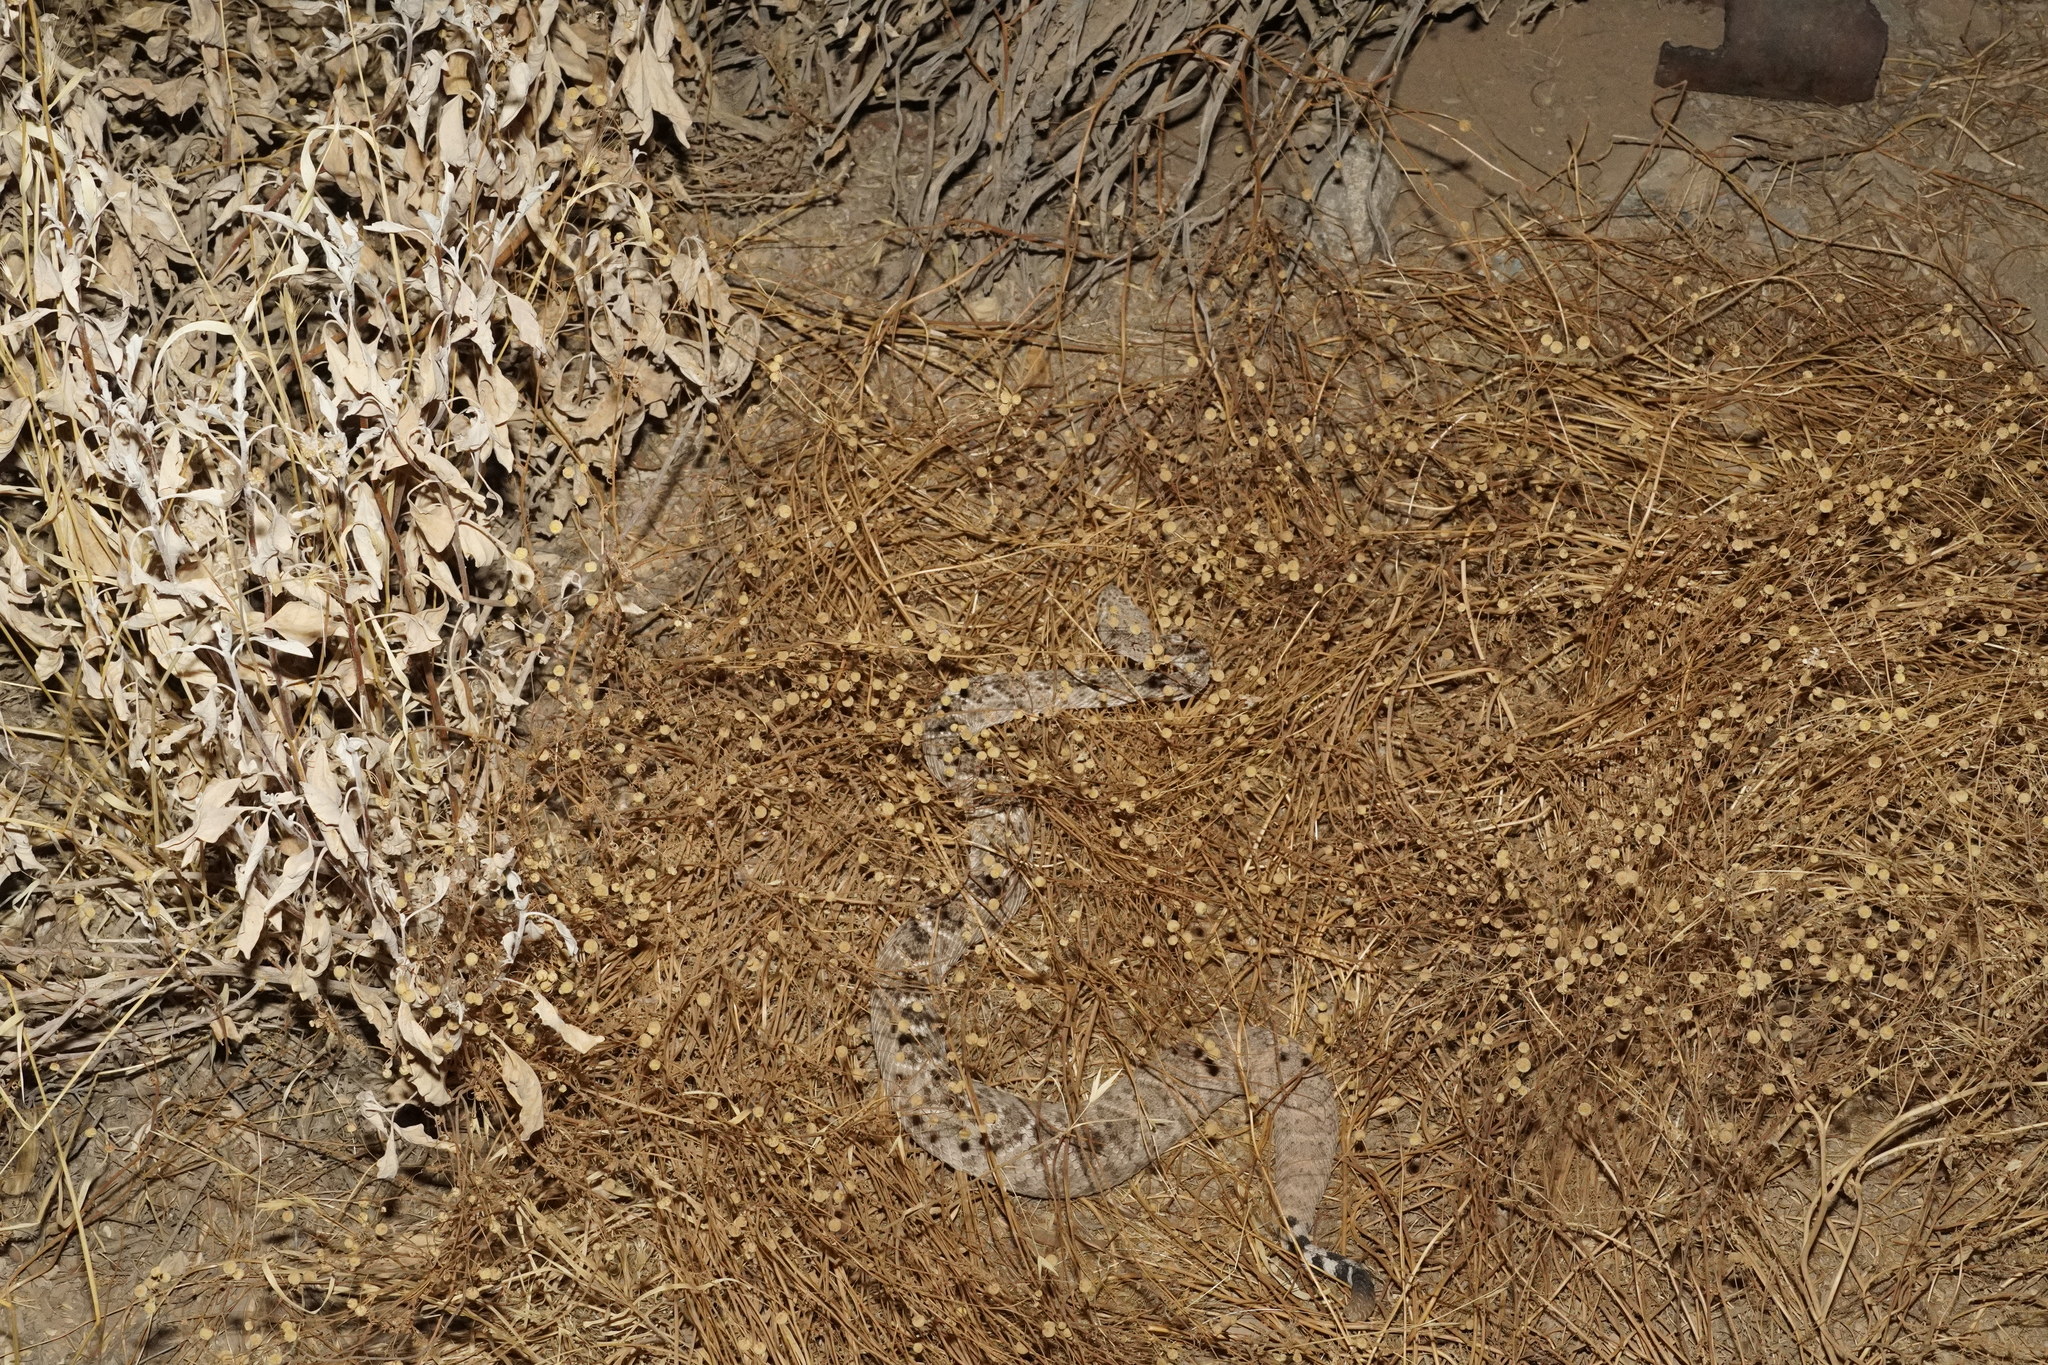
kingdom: Animalia
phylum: Chordata
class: Squamata
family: Viperidae
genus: Crotalus
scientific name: Crotalus atrox
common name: Western diamond-backed rattlesnake
